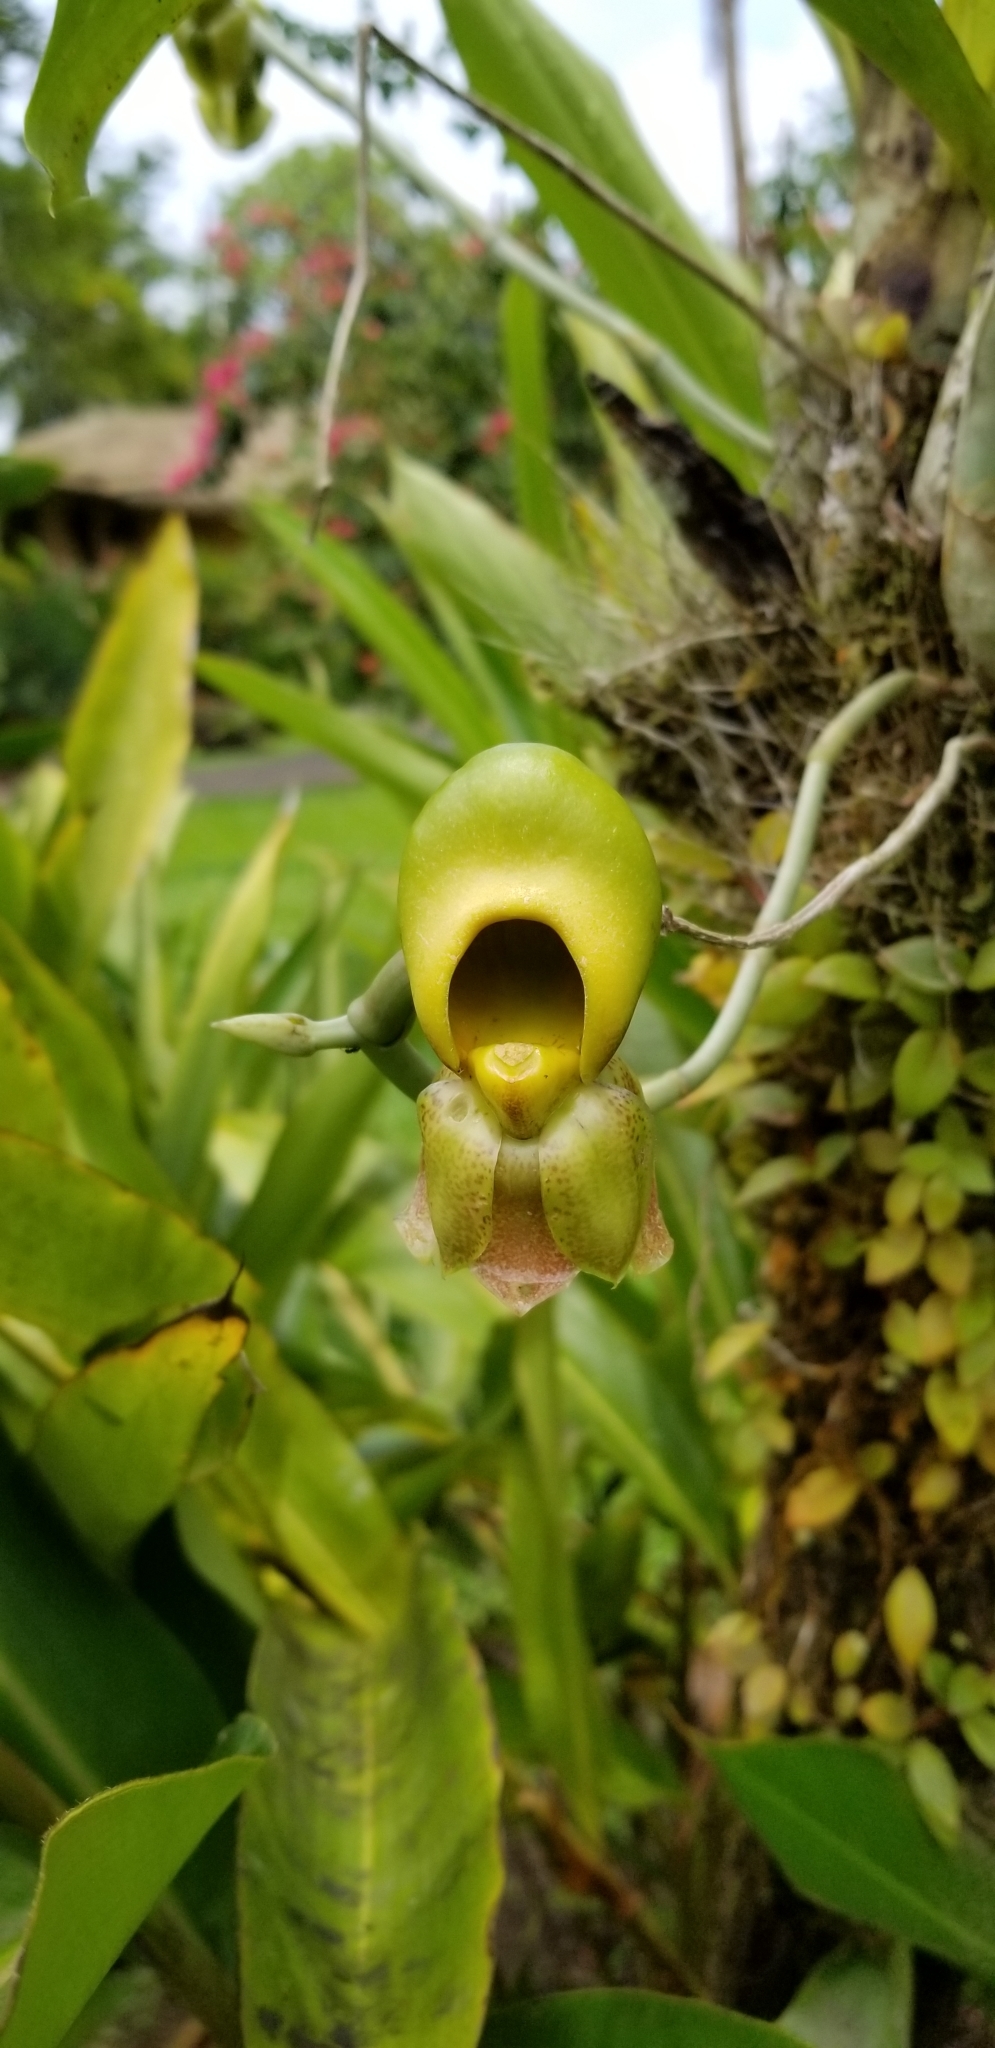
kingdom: Plantae
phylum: Tracheophyta
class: Liliopsida
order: Asparagales
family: Orchidaceae
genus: Catasetum
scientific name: Catasetum maculatum
